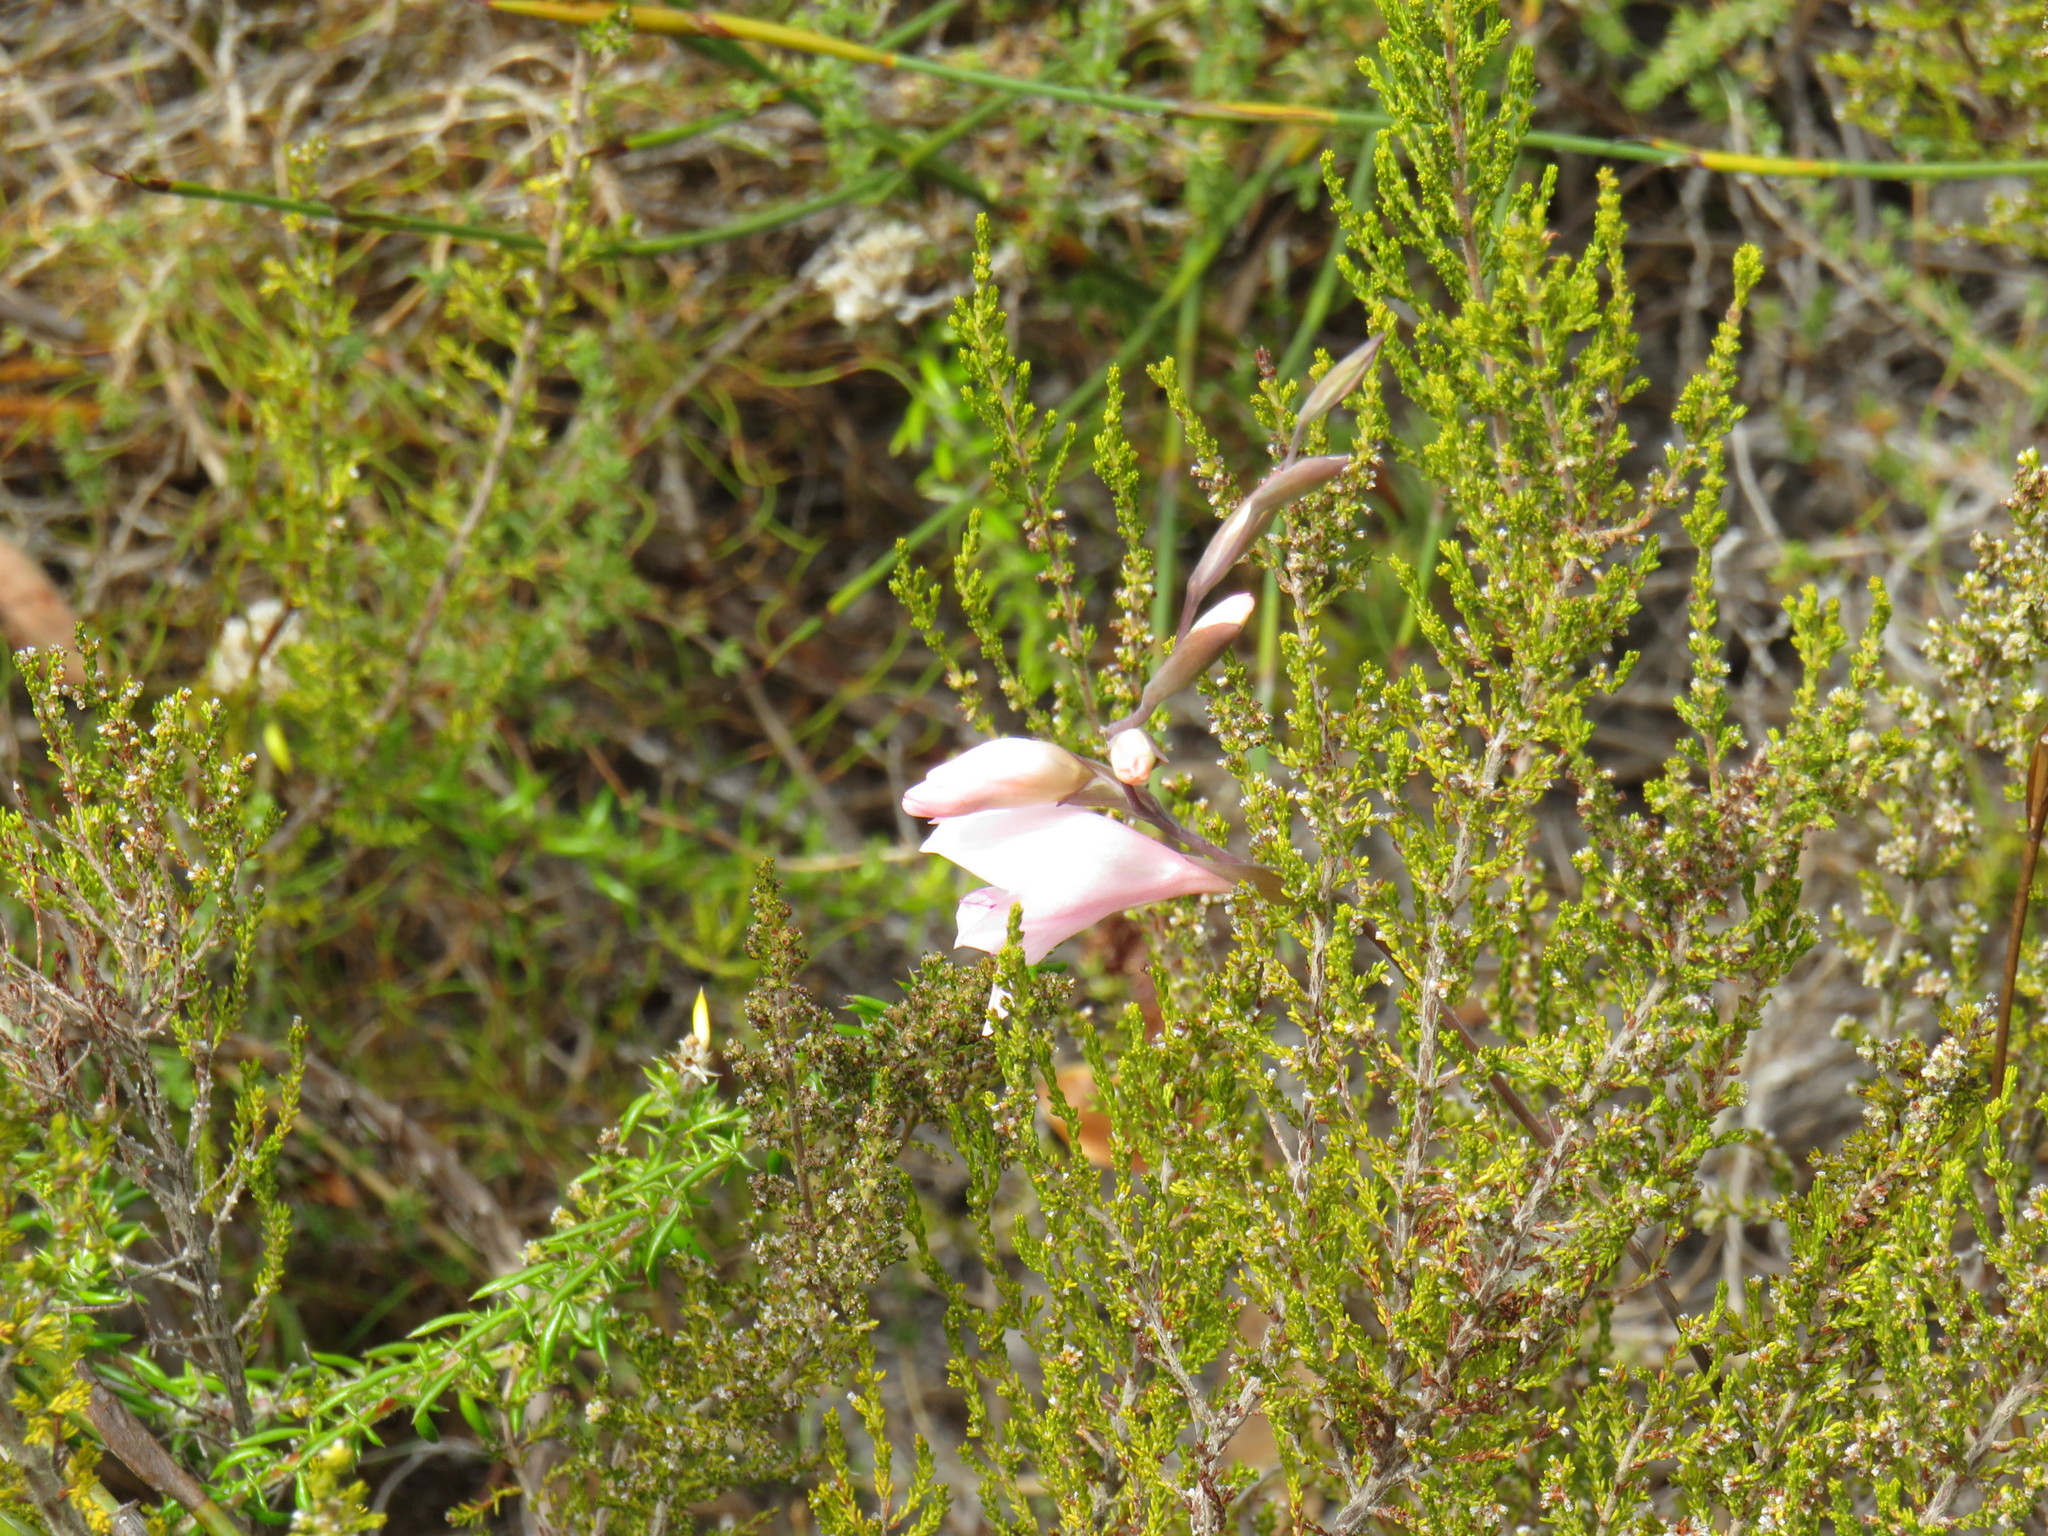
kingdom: Plantae
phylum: Tracheophyta
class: Liliopsida
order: Asparagales
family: Iridaceae
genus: Gladiolus
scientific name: Gladiolus brevifolius
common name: March pypie
